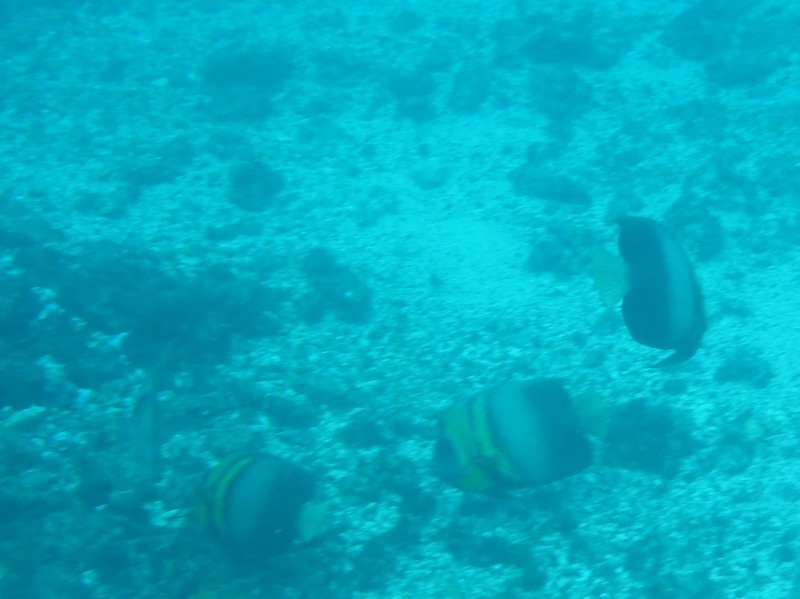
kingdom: Animalia
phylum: Chordata
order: Perciformes
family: Pomacanthidae
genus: Pomacanthus
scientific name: Pomacanthus zonipectus
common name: Cortez angelfish
